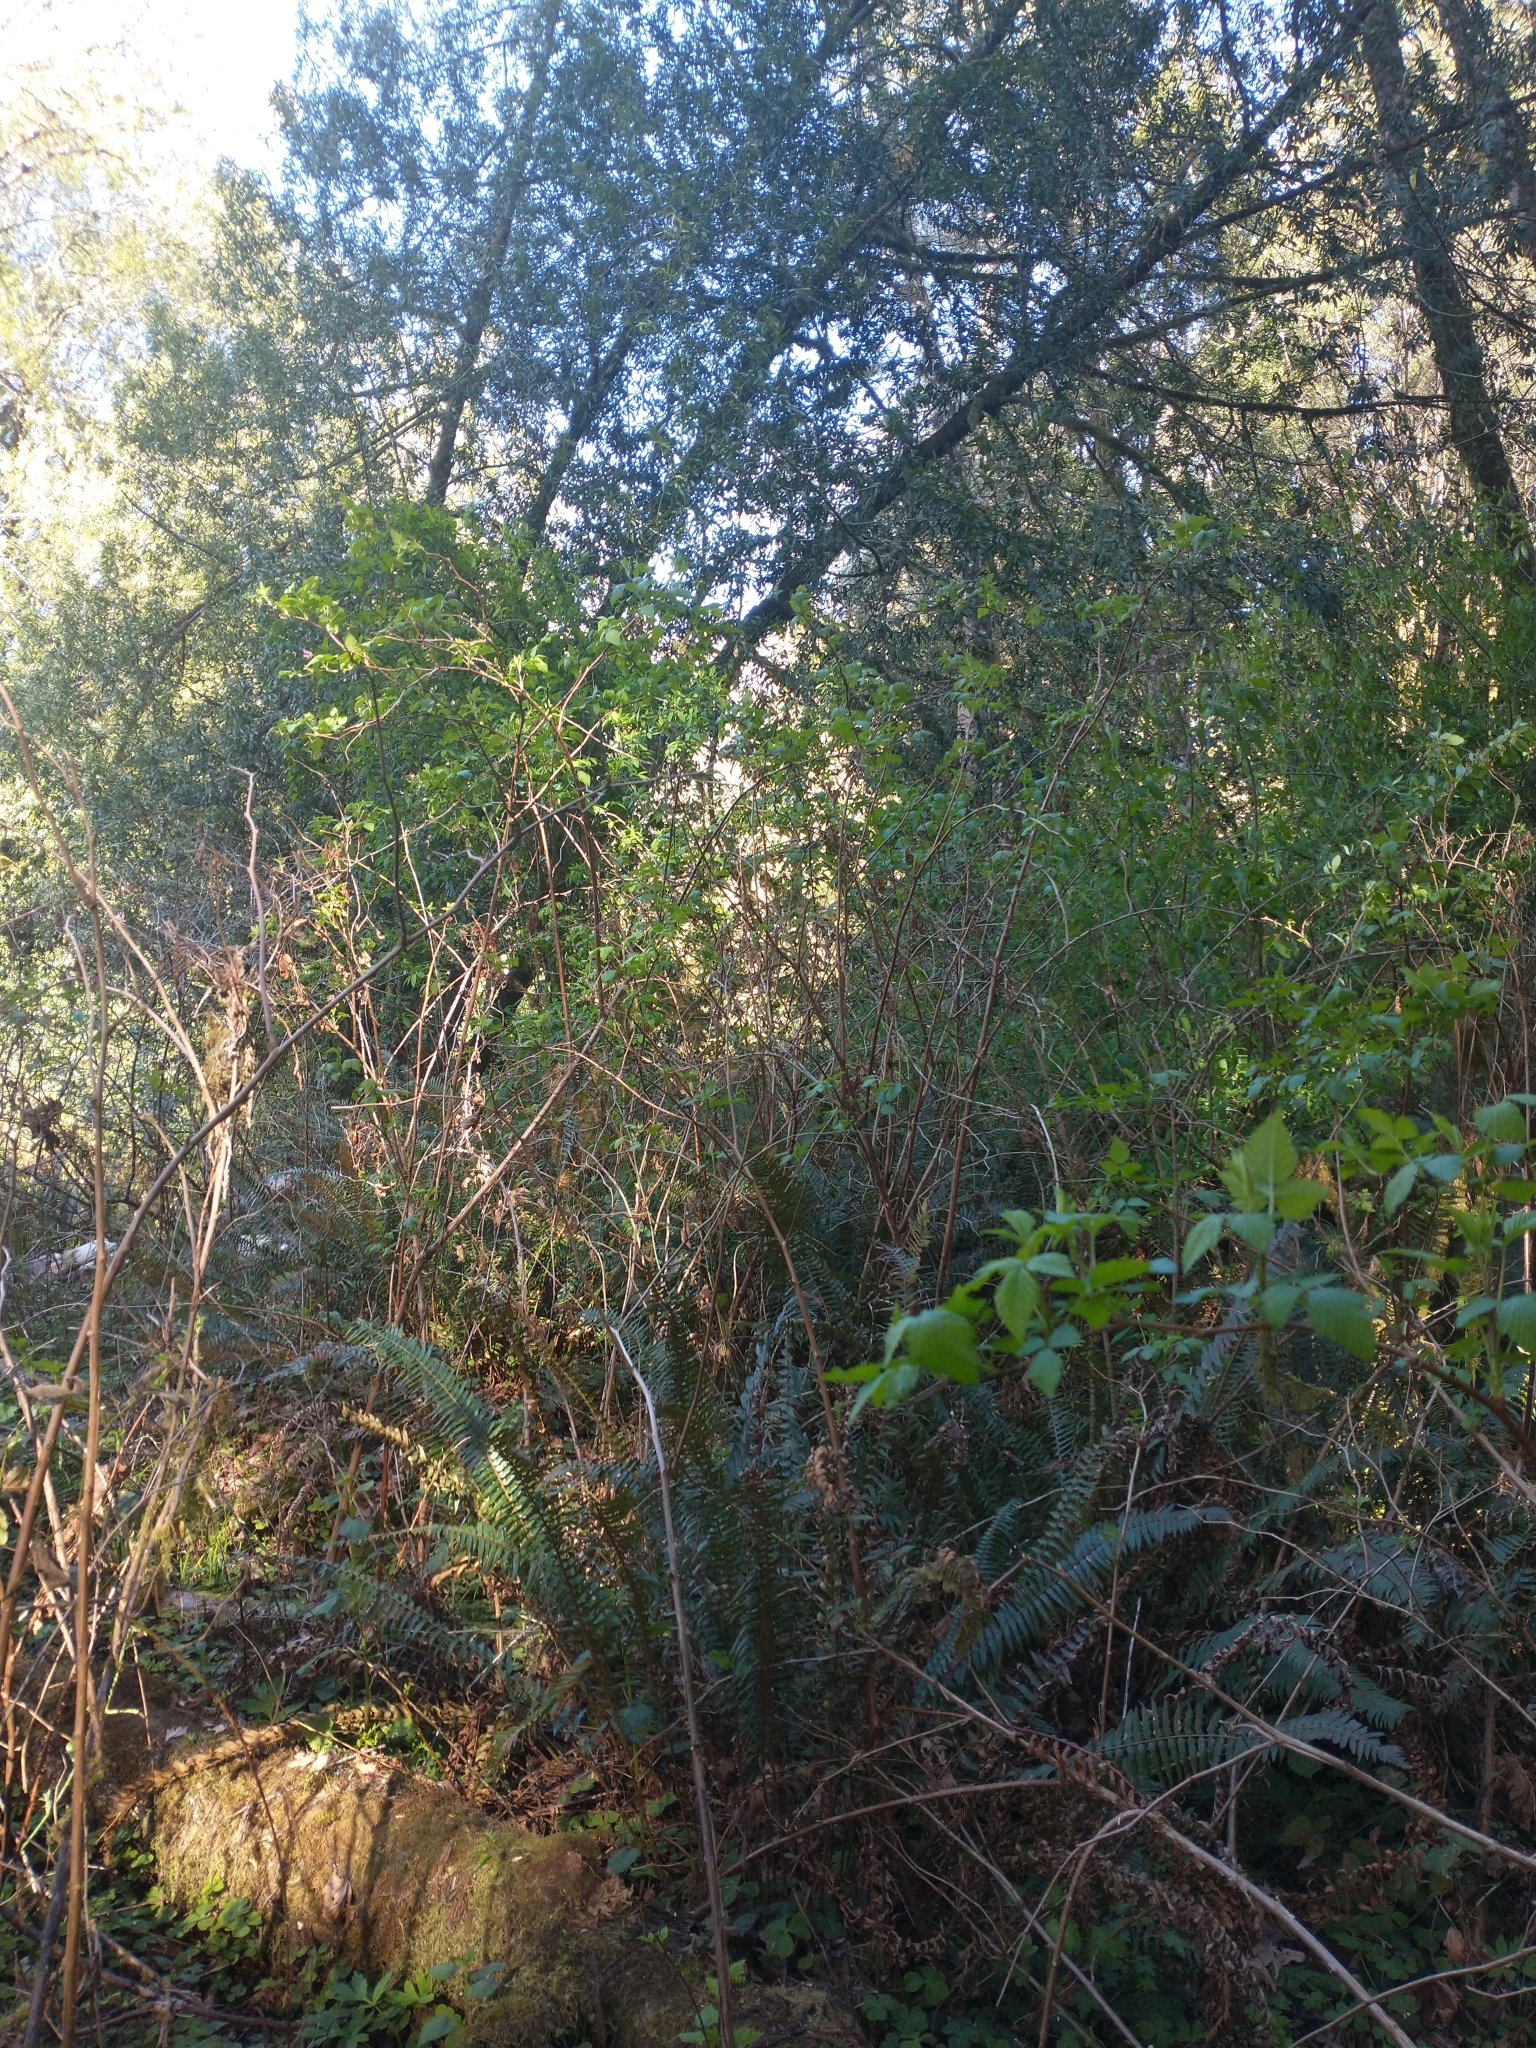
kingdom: Plantae
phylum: Tracheophyta
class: Magnoliopsida
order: Rosales
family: Rosaceae
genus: Rubus
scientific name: Rubus spectabilis
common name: Salmonberry
